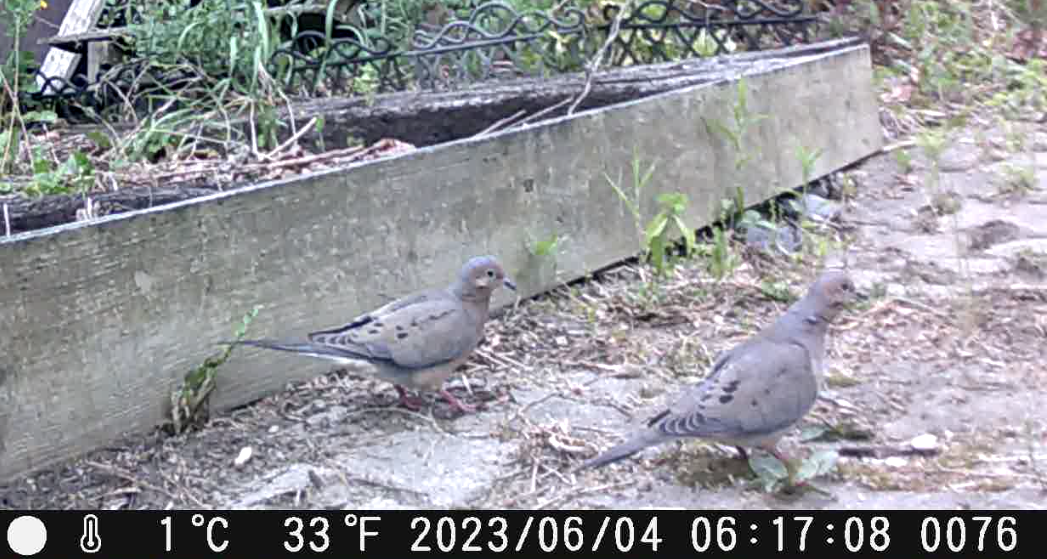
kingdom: Animalia
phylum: Chordata
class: Aves
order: Columbiformes
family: Columbidae
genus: Zenaida
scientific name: Zenaida macroura
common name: Mourning dove
